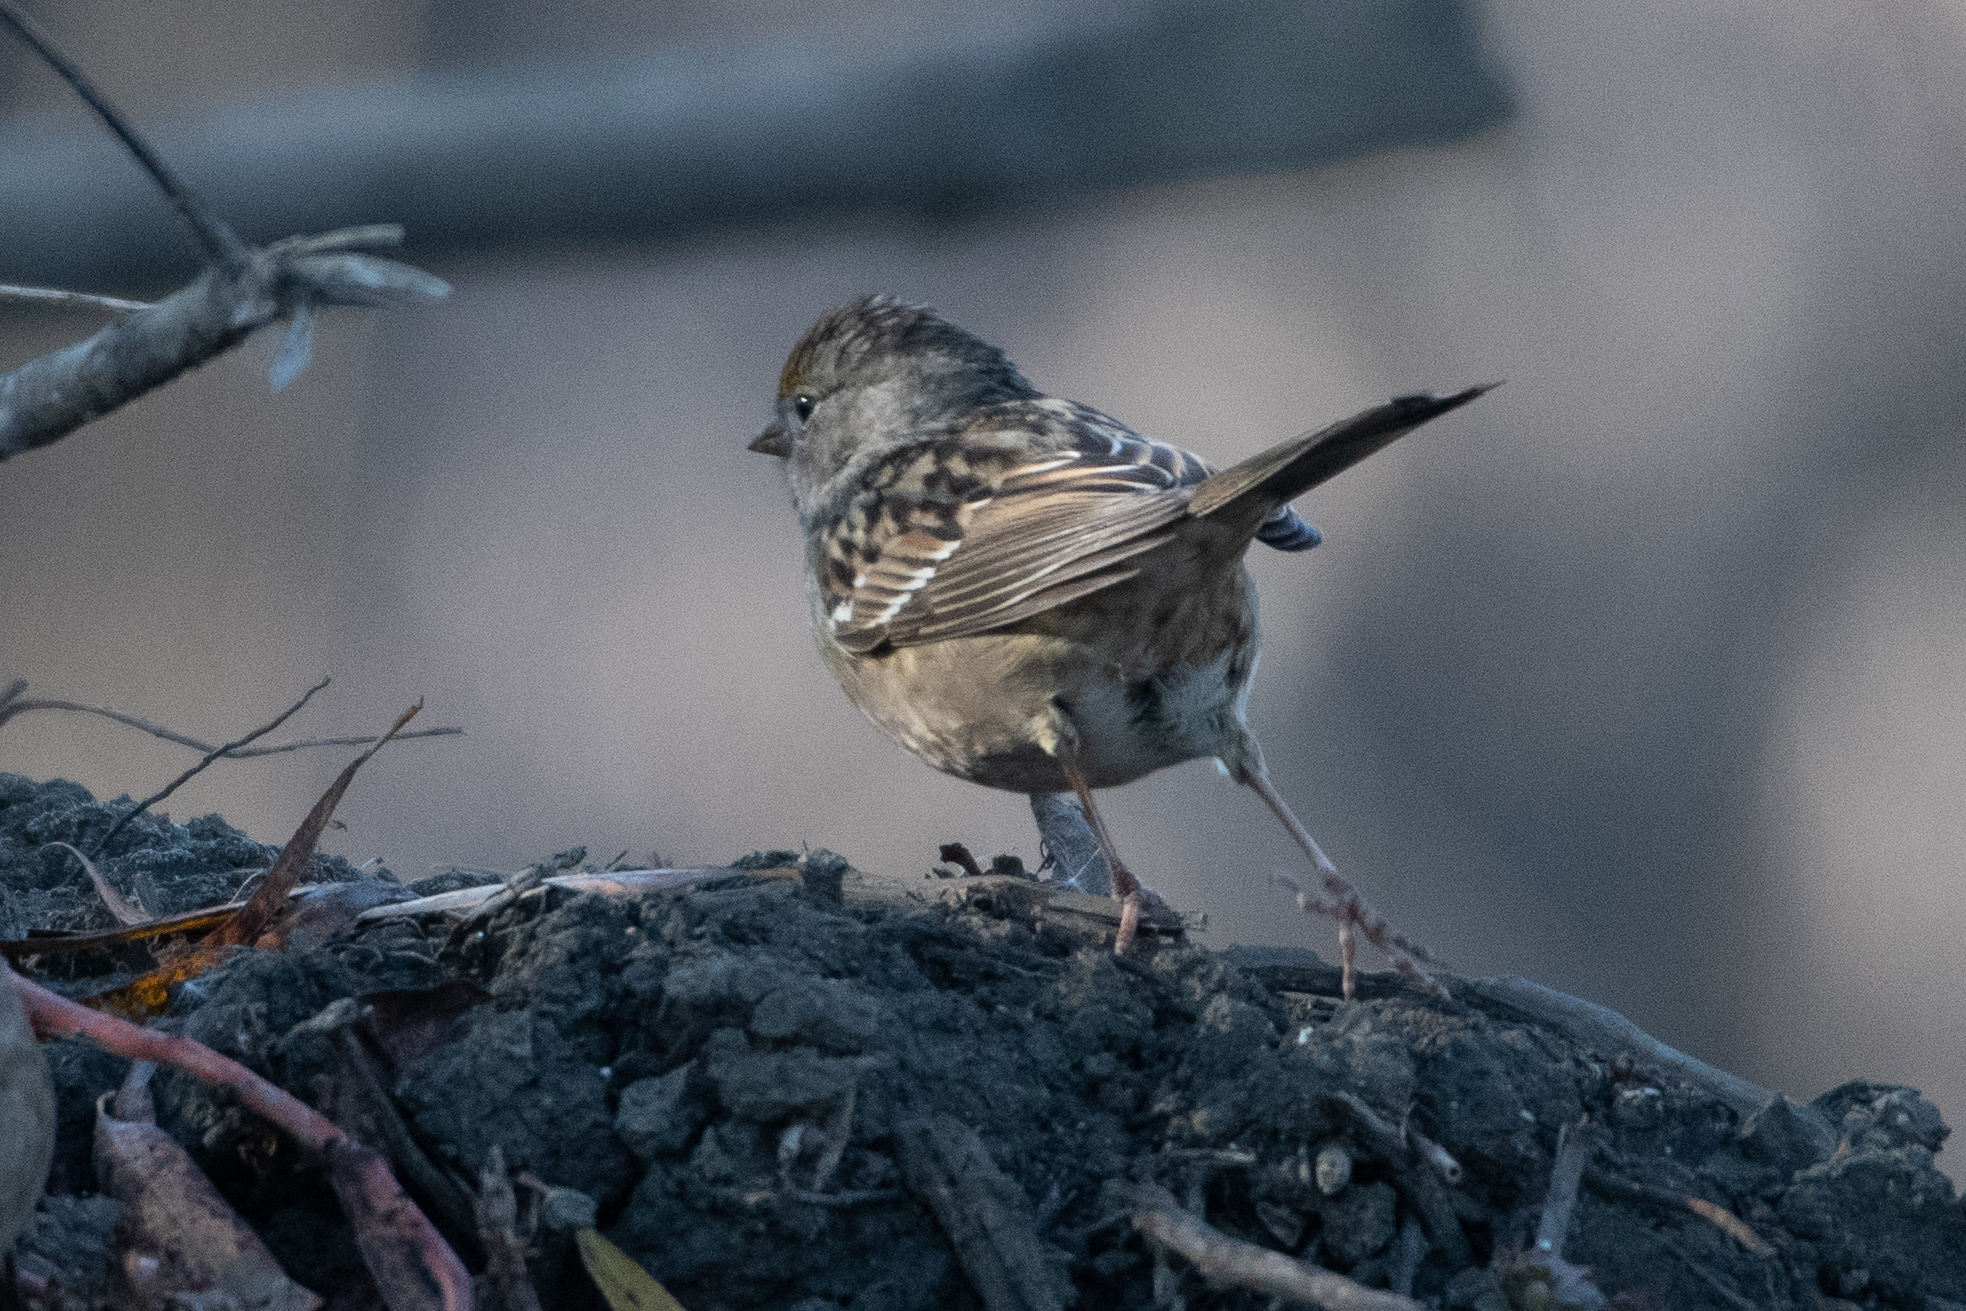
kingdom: Animalia
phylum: Chordata
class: Aves
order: Passeriformes
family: Passerellidae
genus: Zonotrichia
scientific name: Zonotrichia atricapilla
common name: Golden-crowned sparrow
